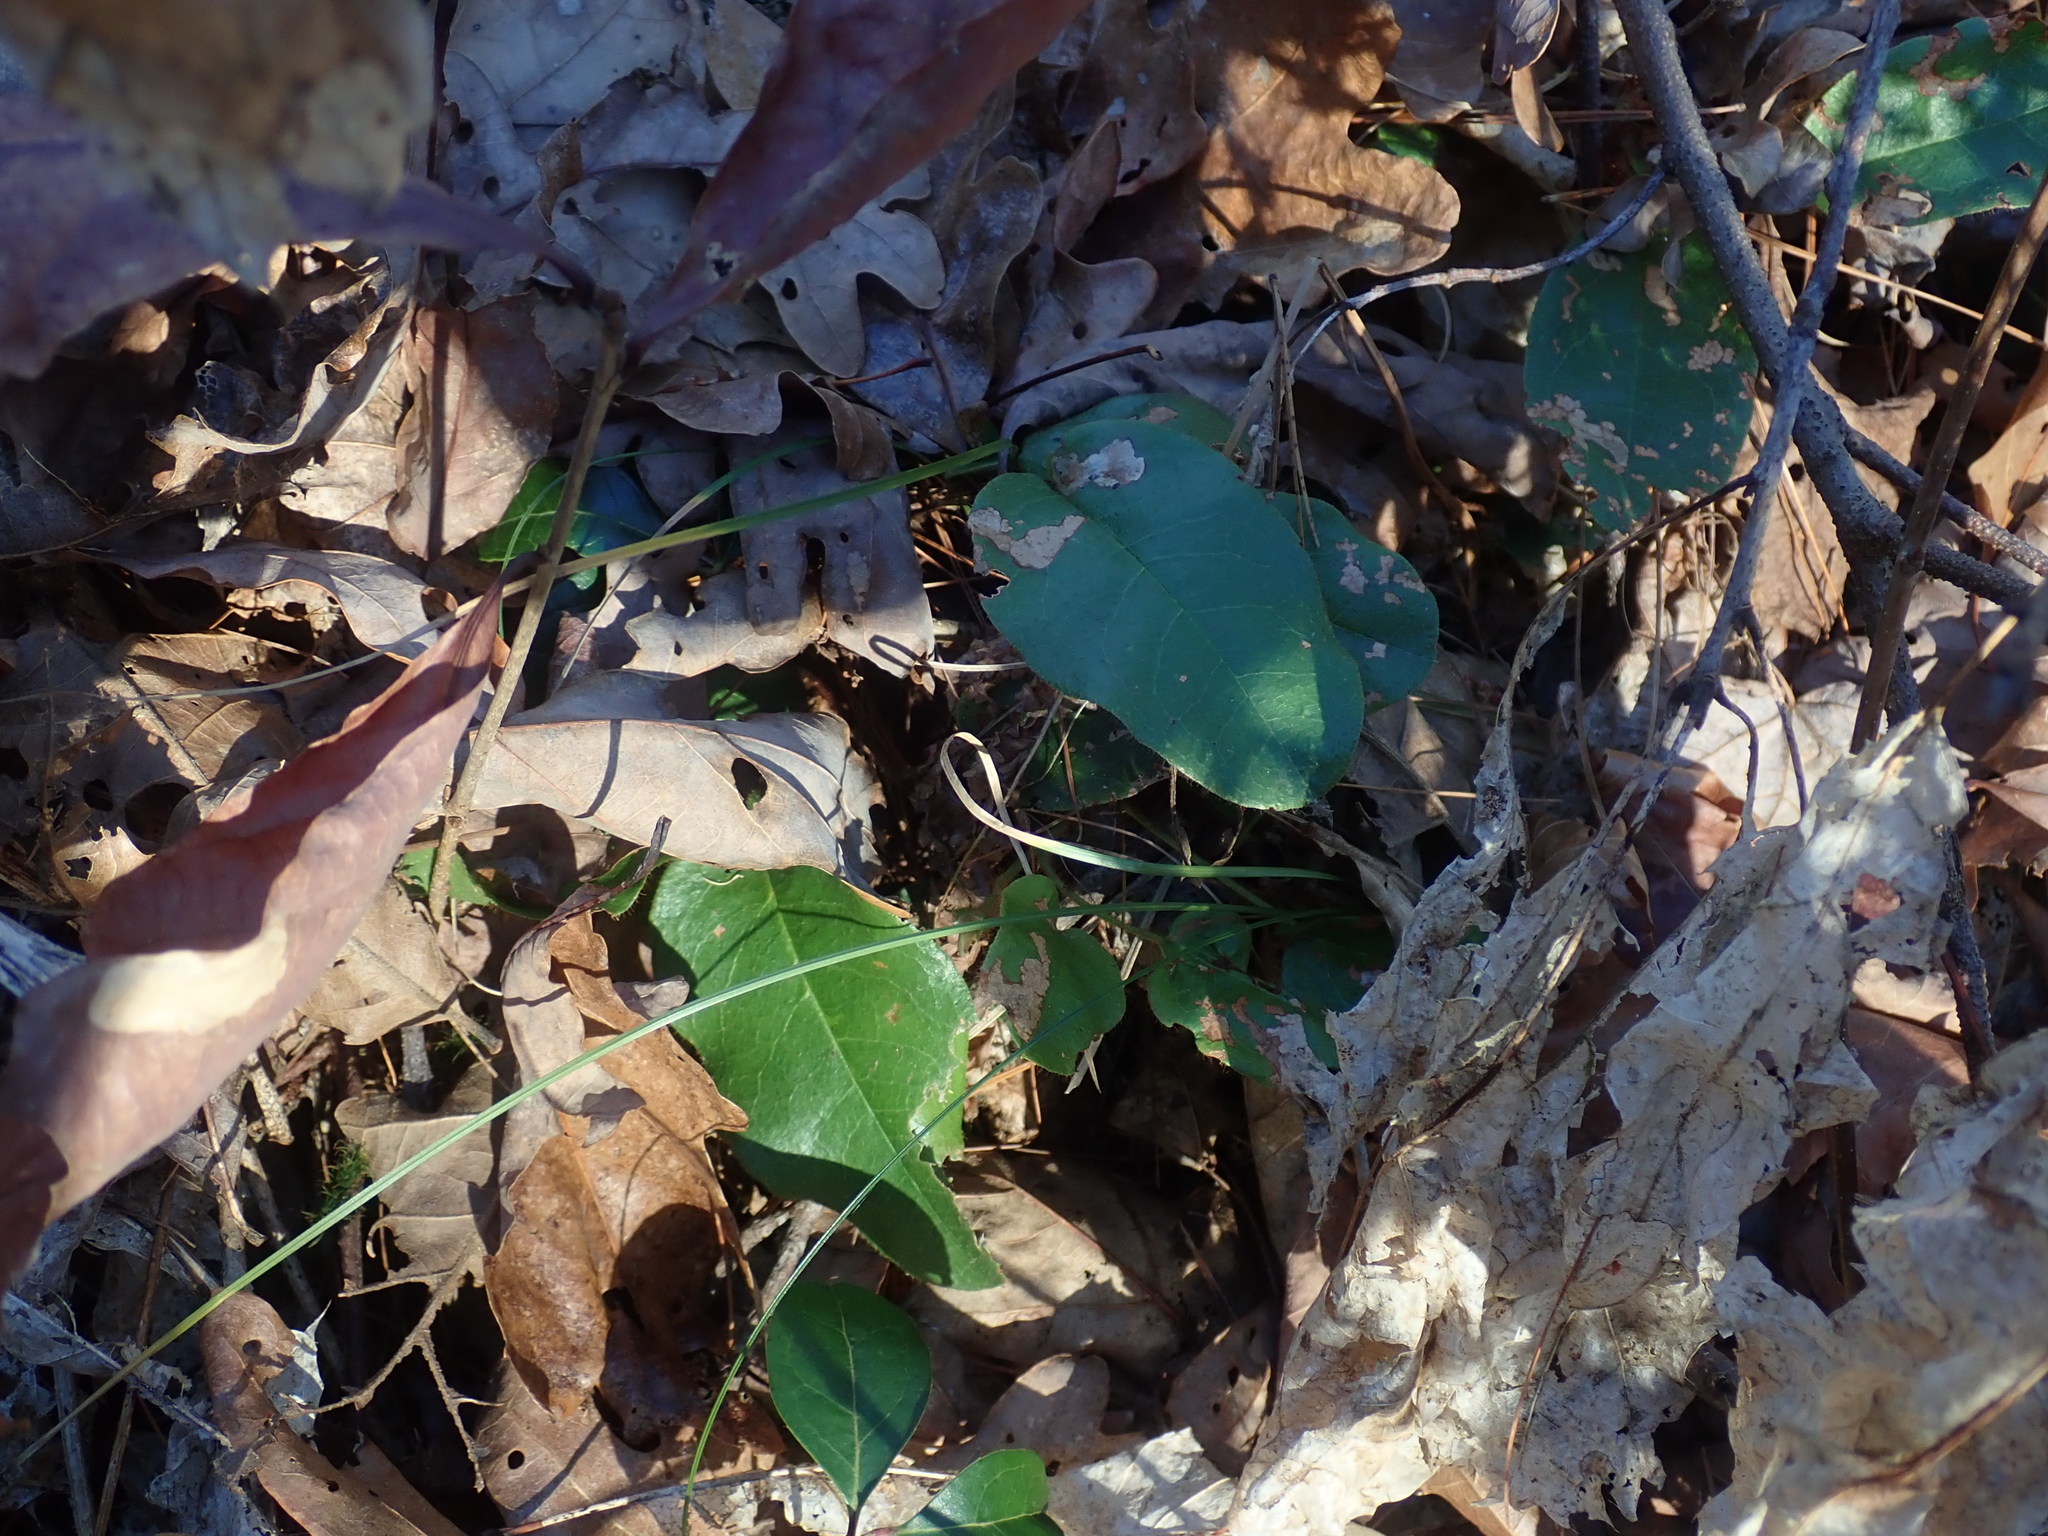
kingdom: Plantae
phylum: Tracheophyta
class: Magnoliopsida
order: Ericales
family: Ericaceae
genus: Epigaea
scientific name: Epigaea repens
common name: Gravelroot
